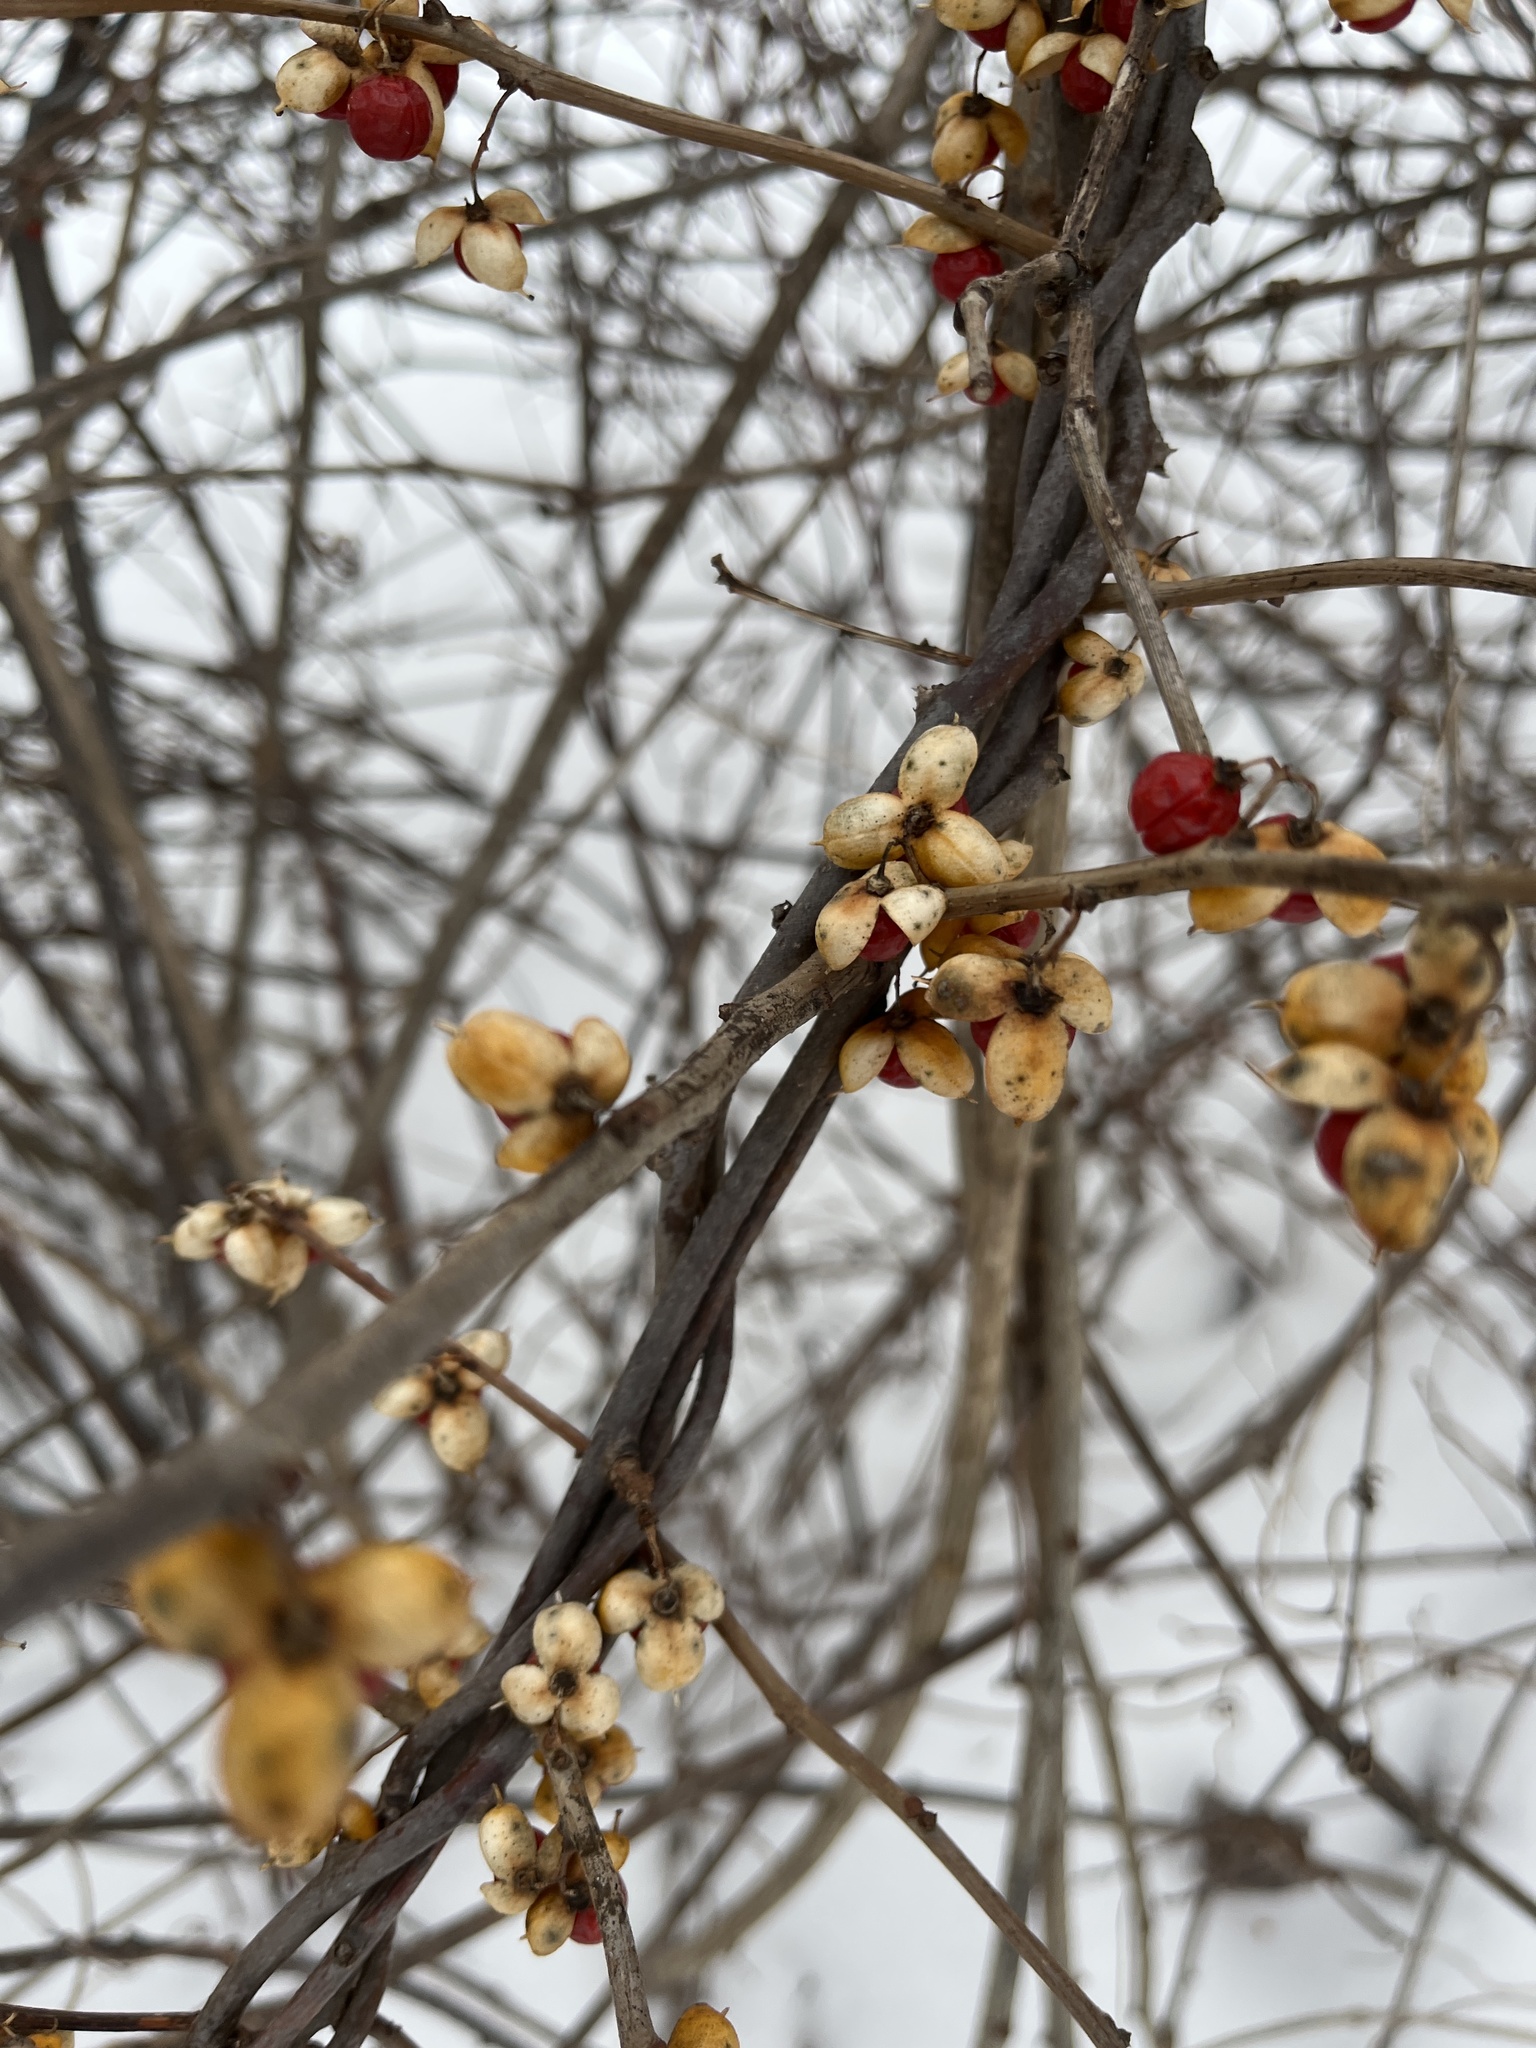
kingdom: Plantae
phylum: Tracheophyta
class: Magnoliopsida
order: Celastrales
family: Celastraceae
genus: Celastrus
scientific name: Celastrus orbiculatus
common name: Oriental bittersweet
